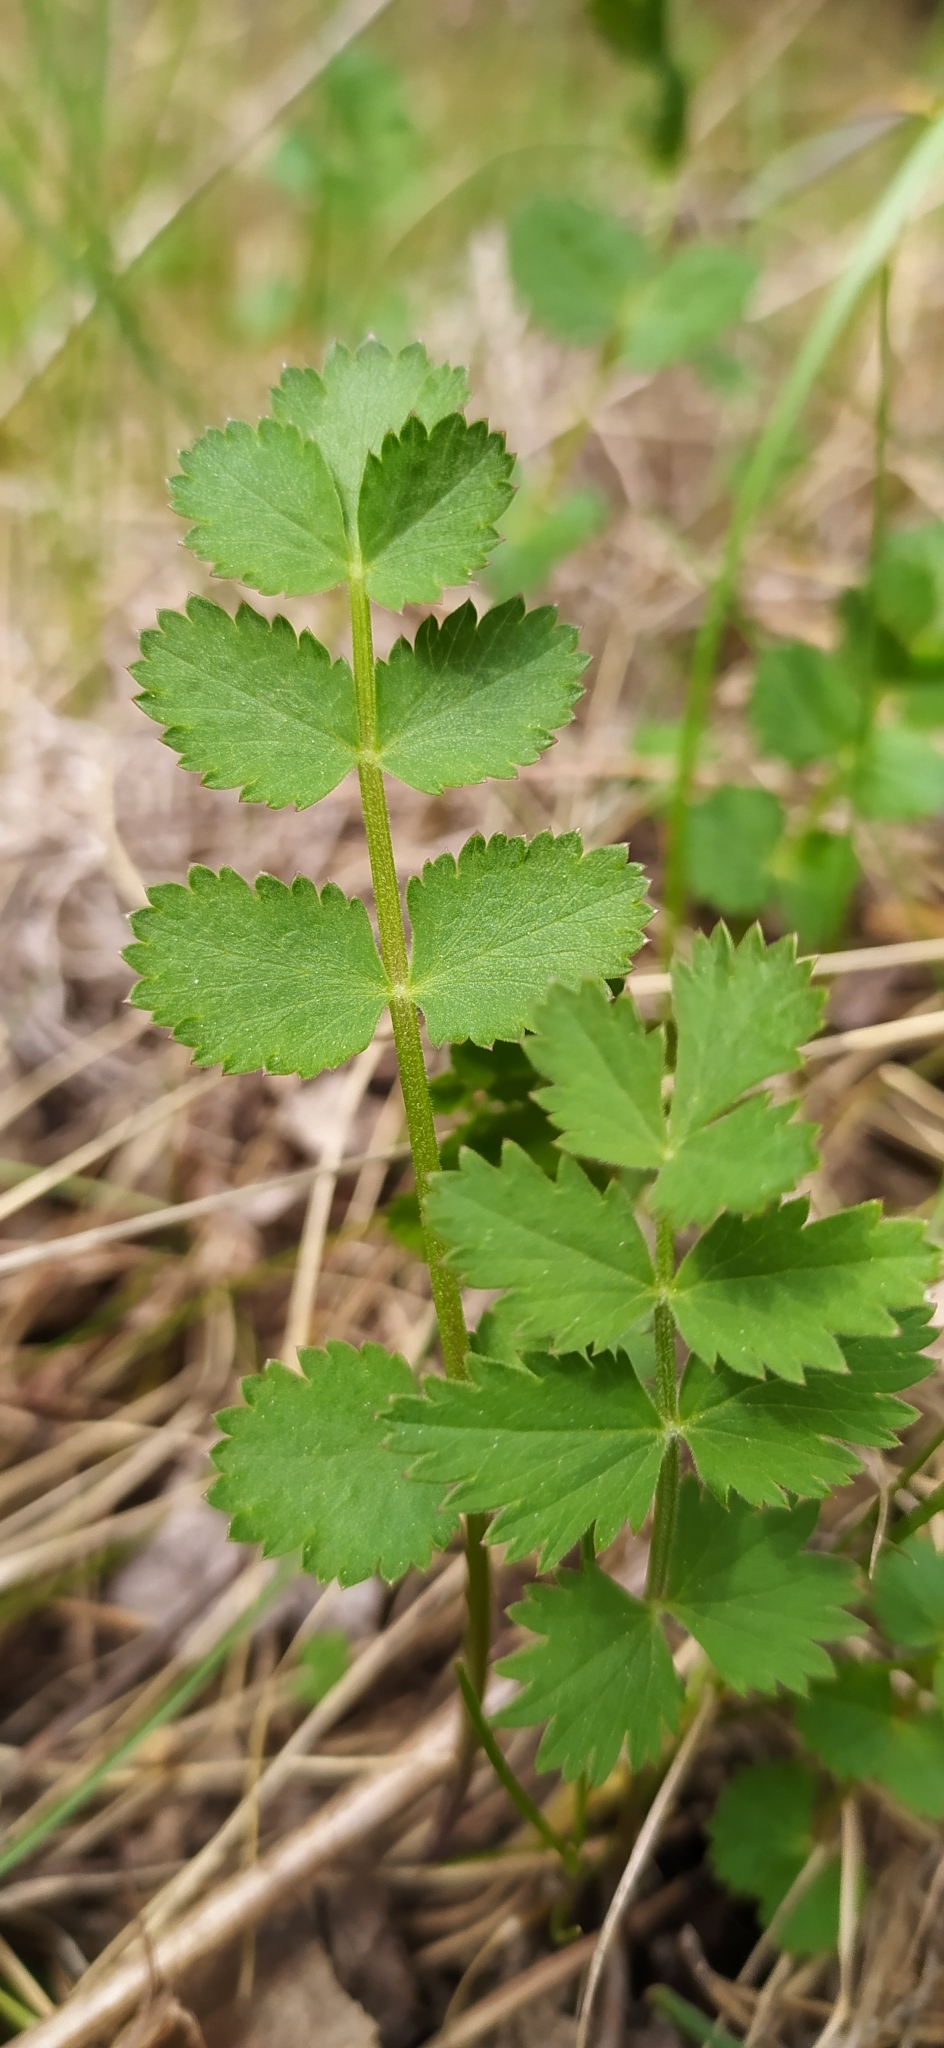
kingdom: Plantae
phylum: Tracheophyta
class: Magnoliopsida
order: Apiales
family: Apiaceae
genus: Pimpinella
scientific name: Pimpinella saxifraga
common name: Burnet-saxifrage
